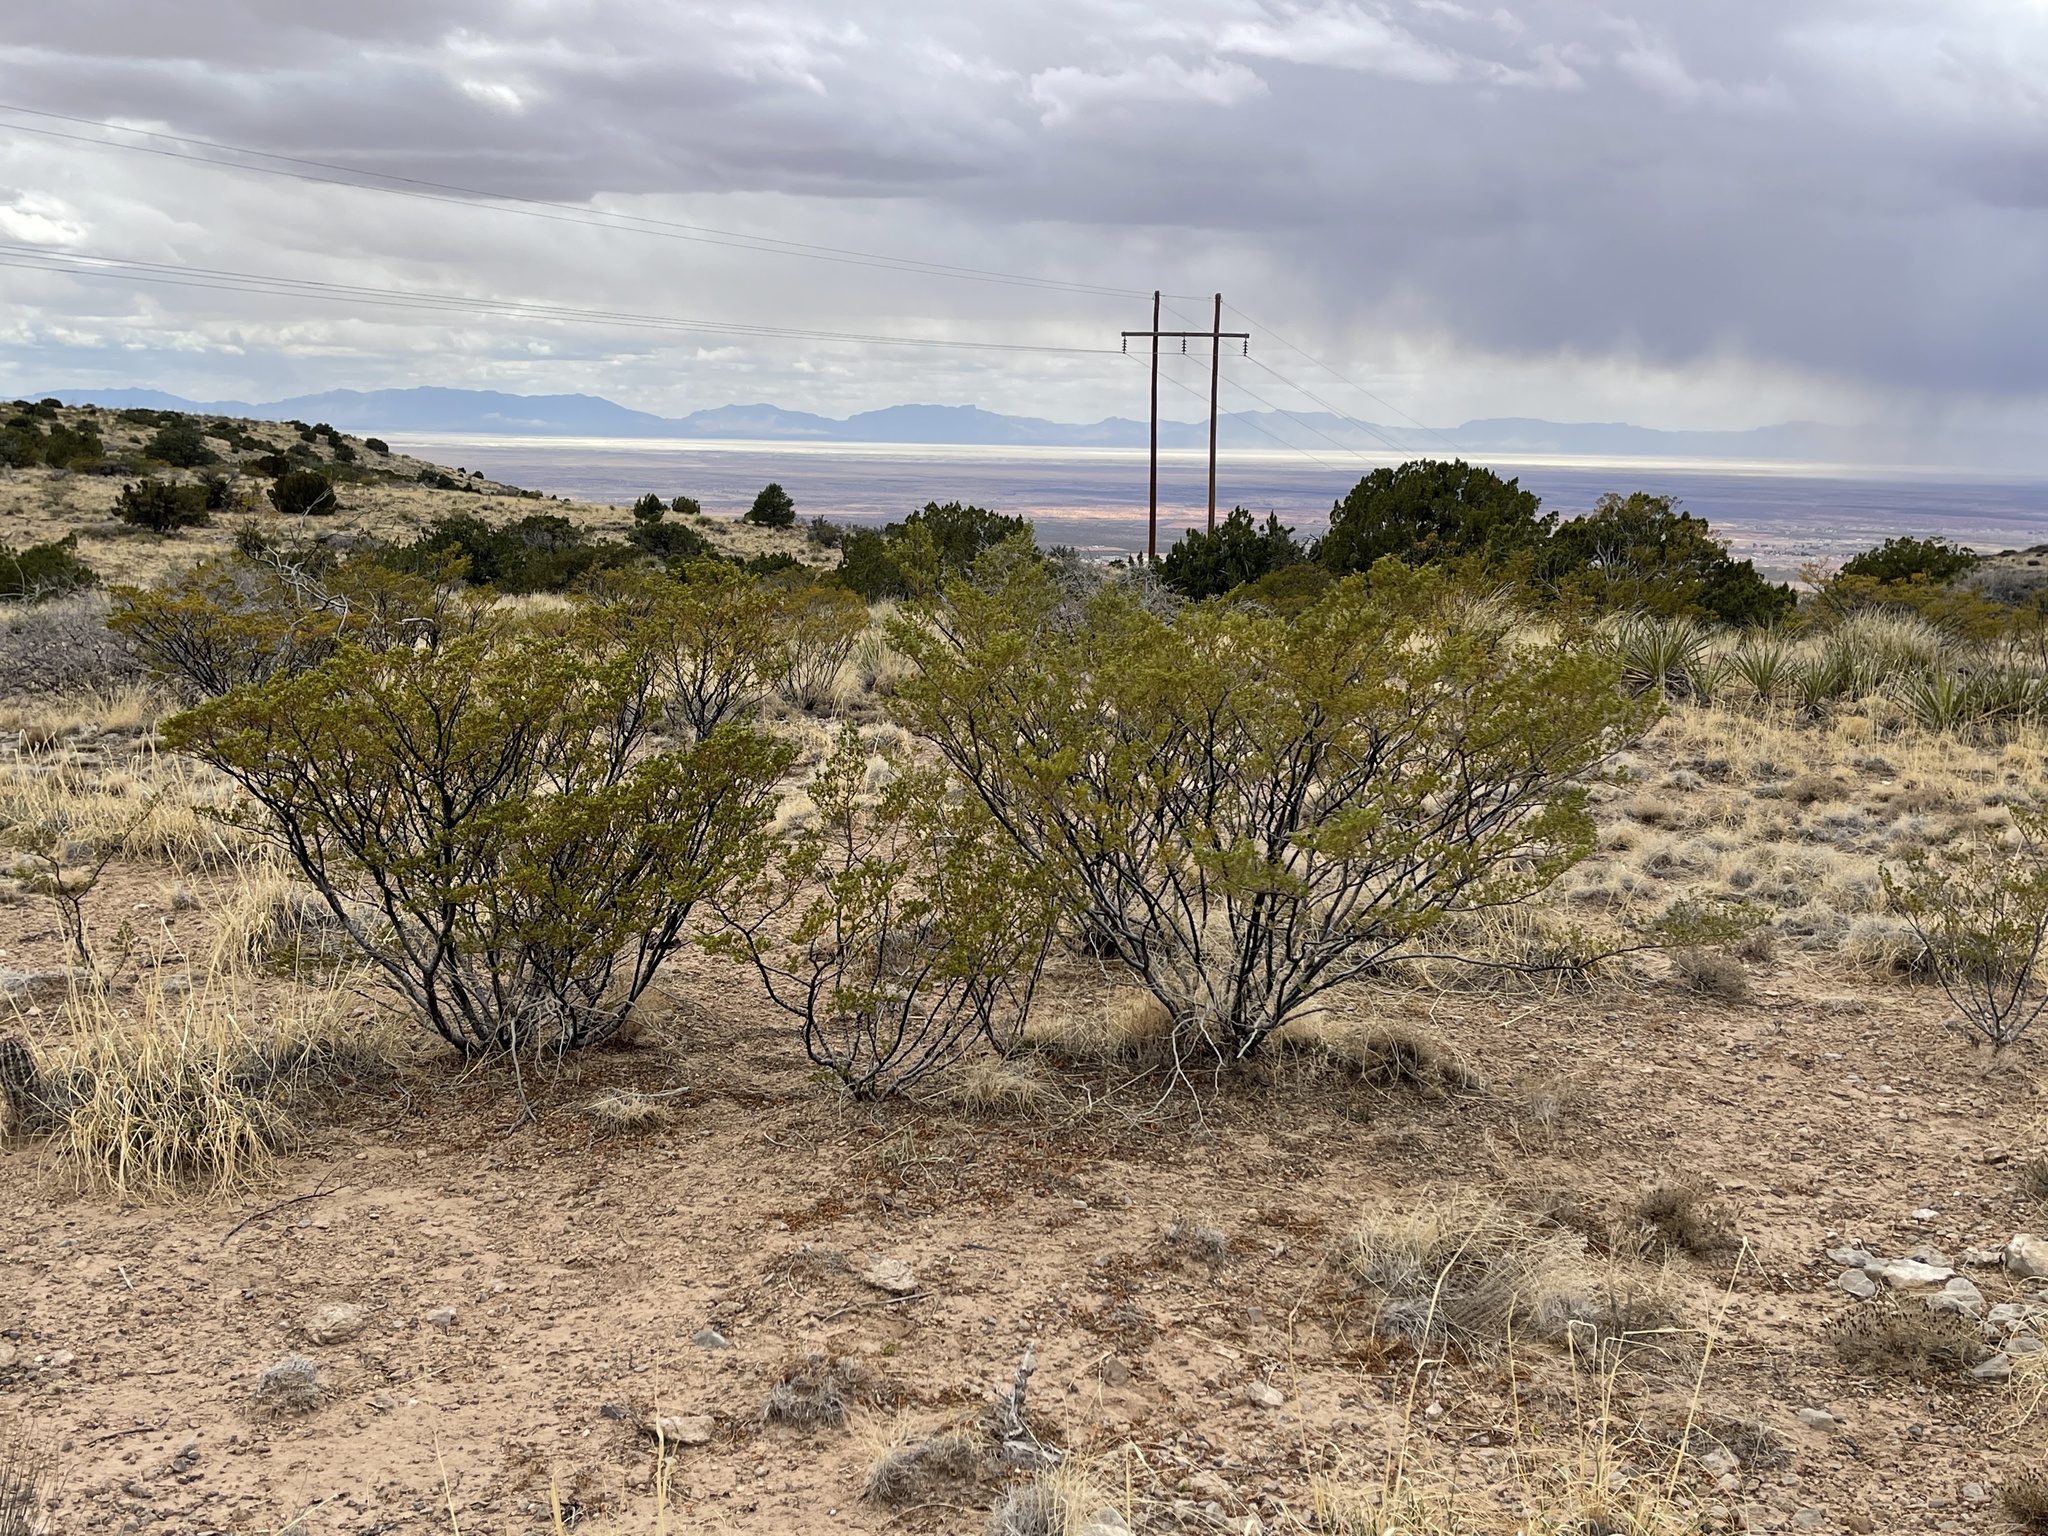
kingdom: Plantae
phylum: Tracheophyta
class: Magnoliopsida
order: Zygophyllales
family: Zygophyllaceae
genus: Larrea
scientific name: Larrea tridentata
